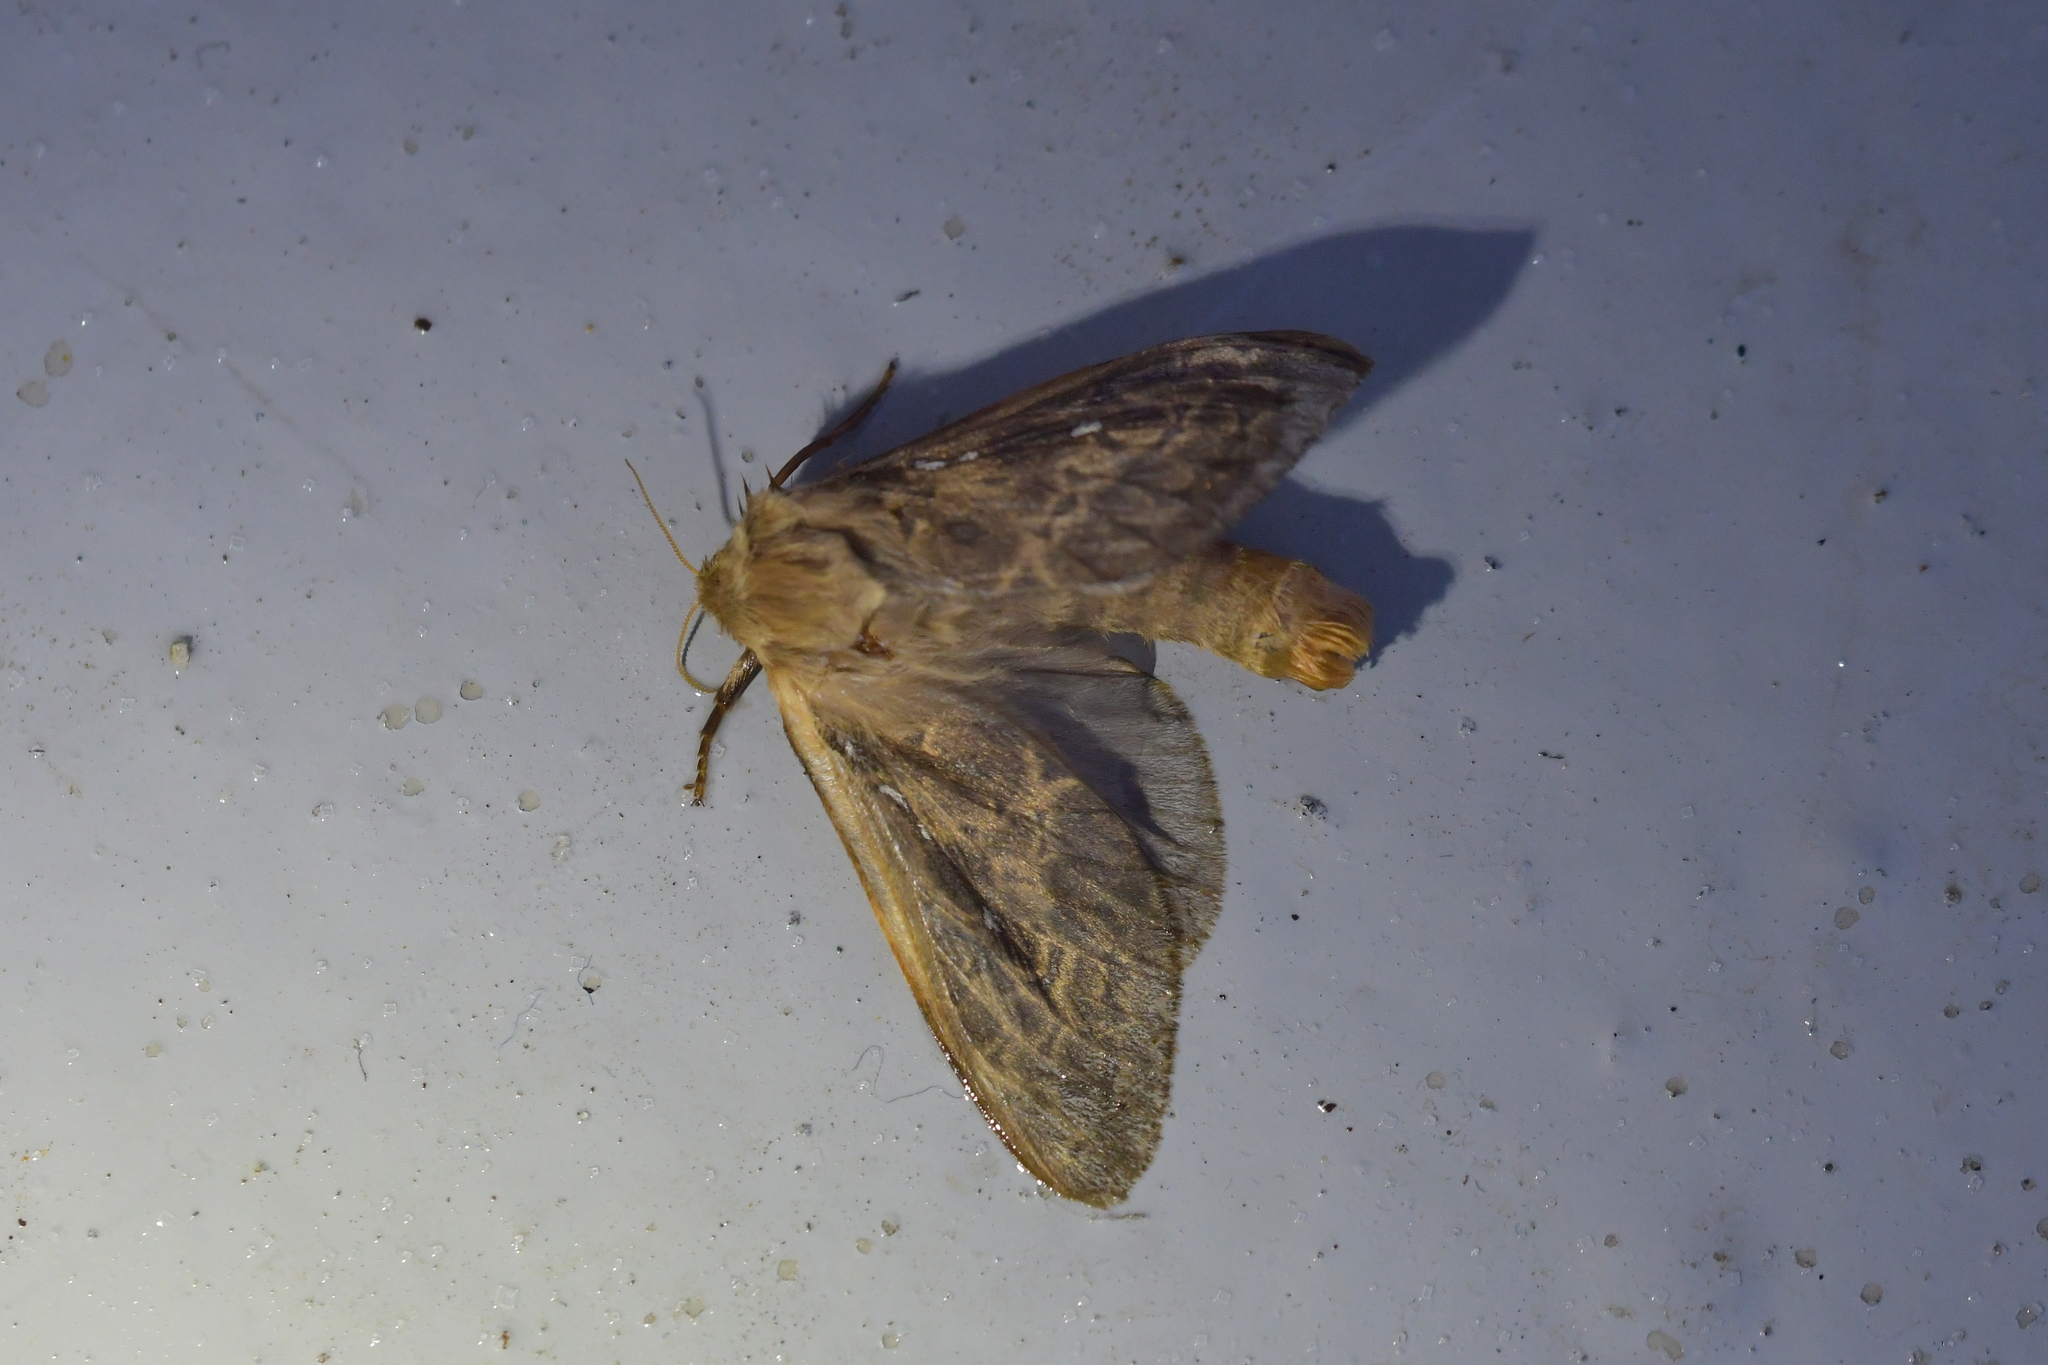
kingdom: Animalia
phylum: Arthropoda
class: Insecta
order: Lepidoptera
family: Hepialidae
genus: Wiseana
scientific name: Wiseana cervinata
